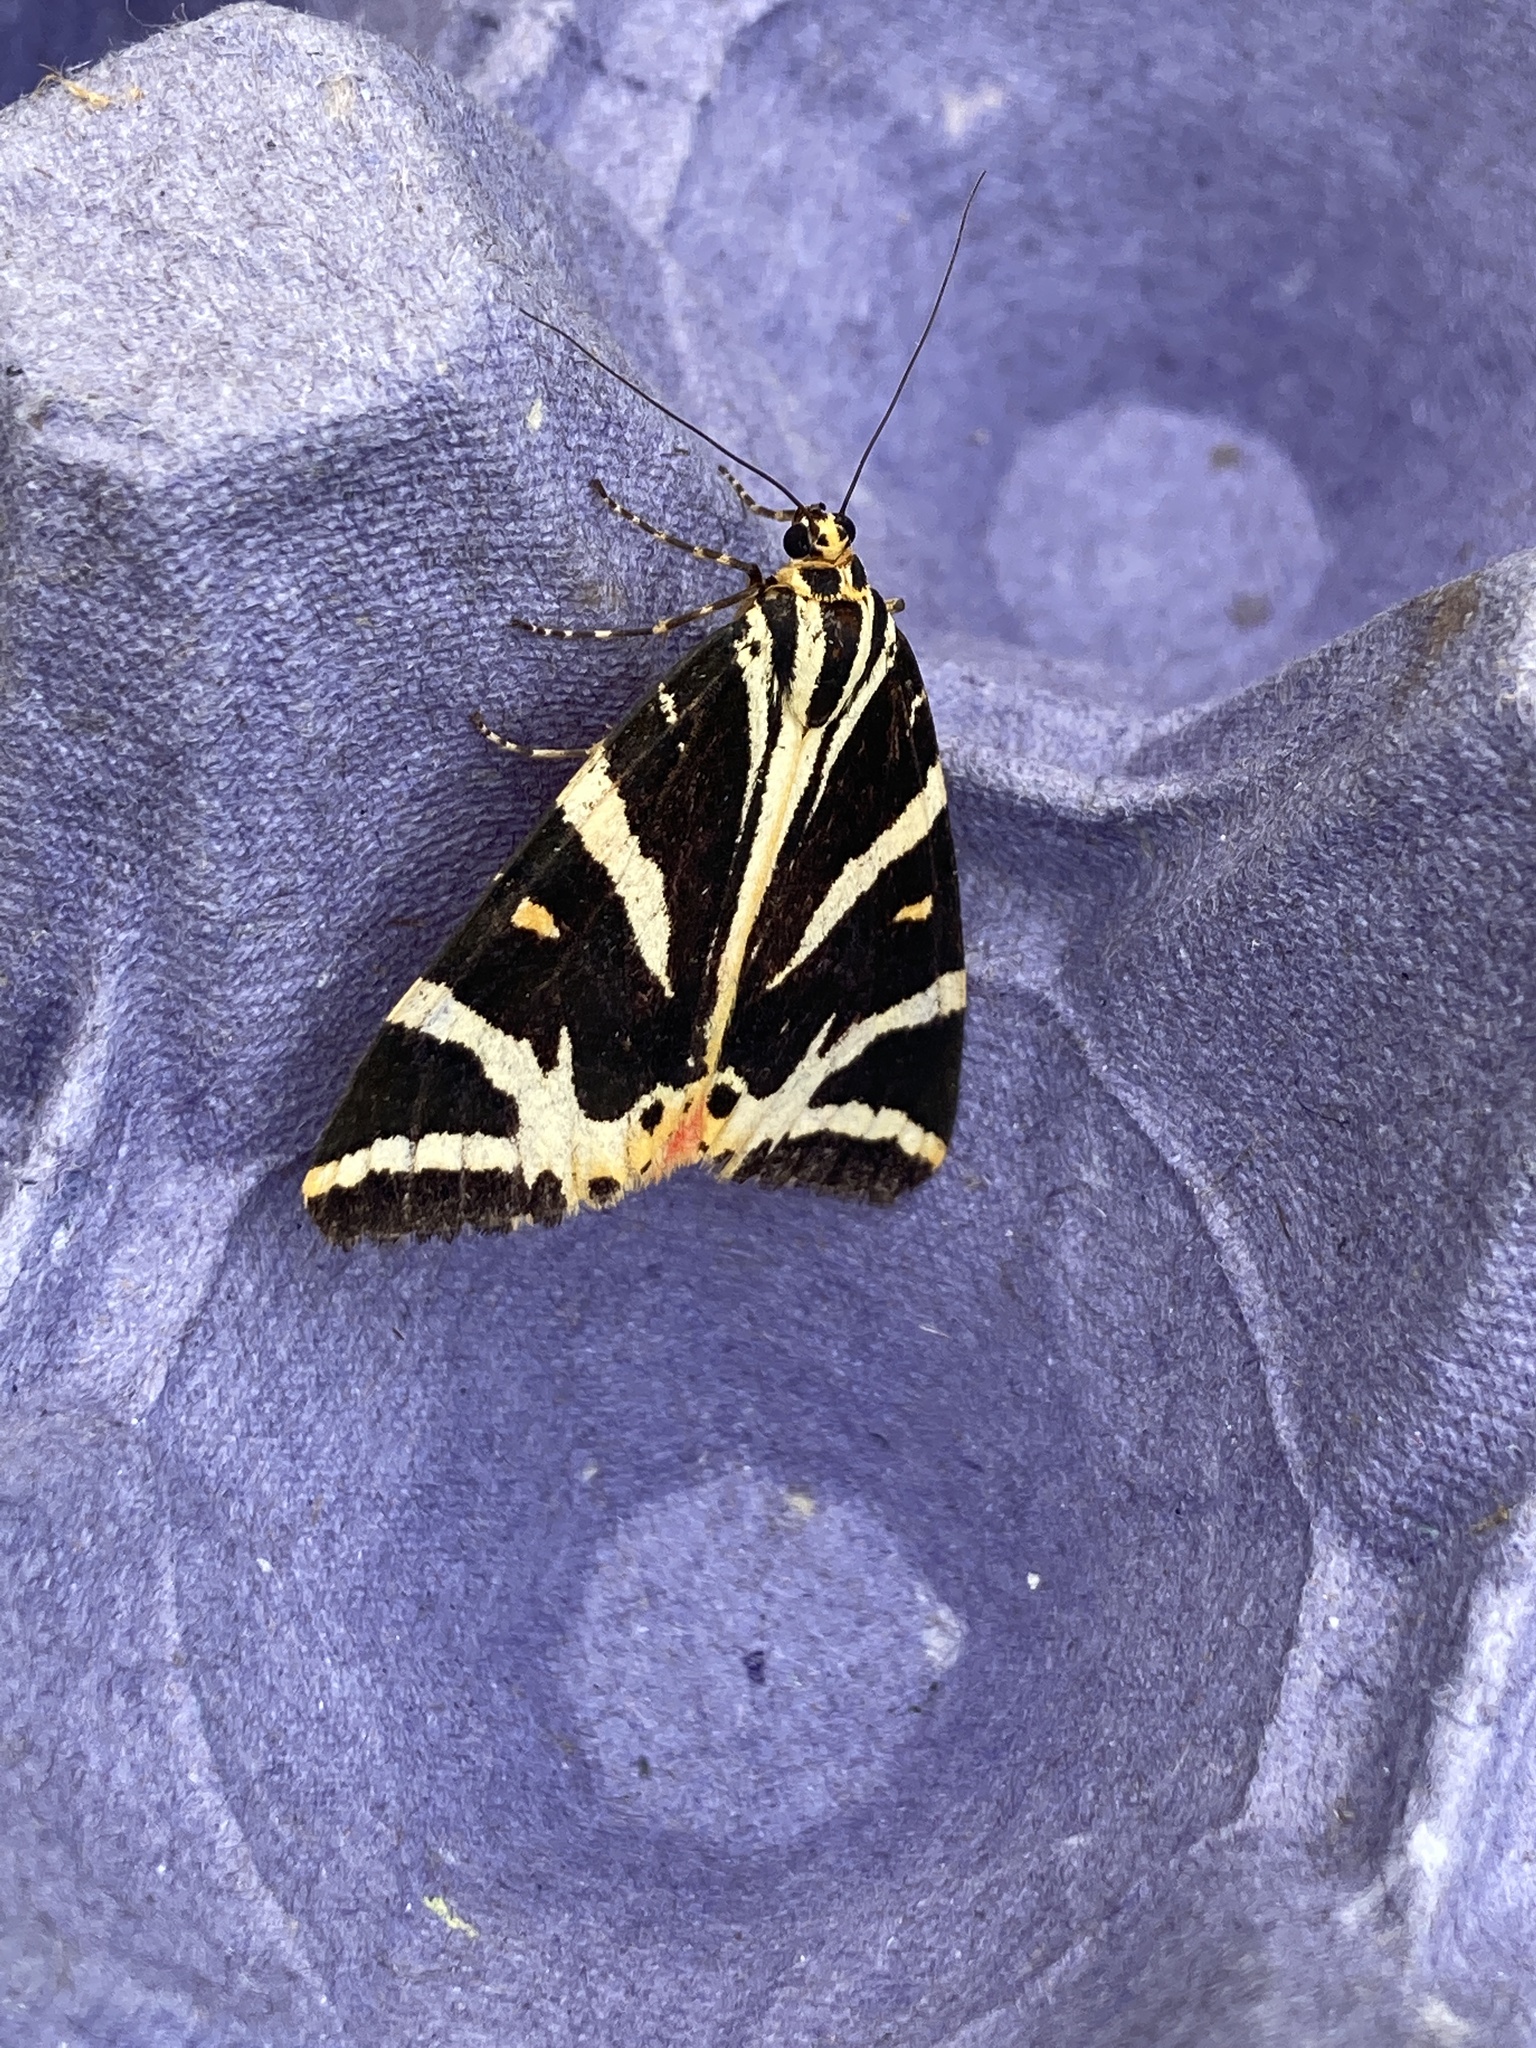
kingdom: Animalia
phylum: Arthropoda
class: Insecta
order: Lepidoptera
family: Erebidae
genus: Euplagia
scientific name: Euplagia quadripunctaria
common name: Jersey tiger
